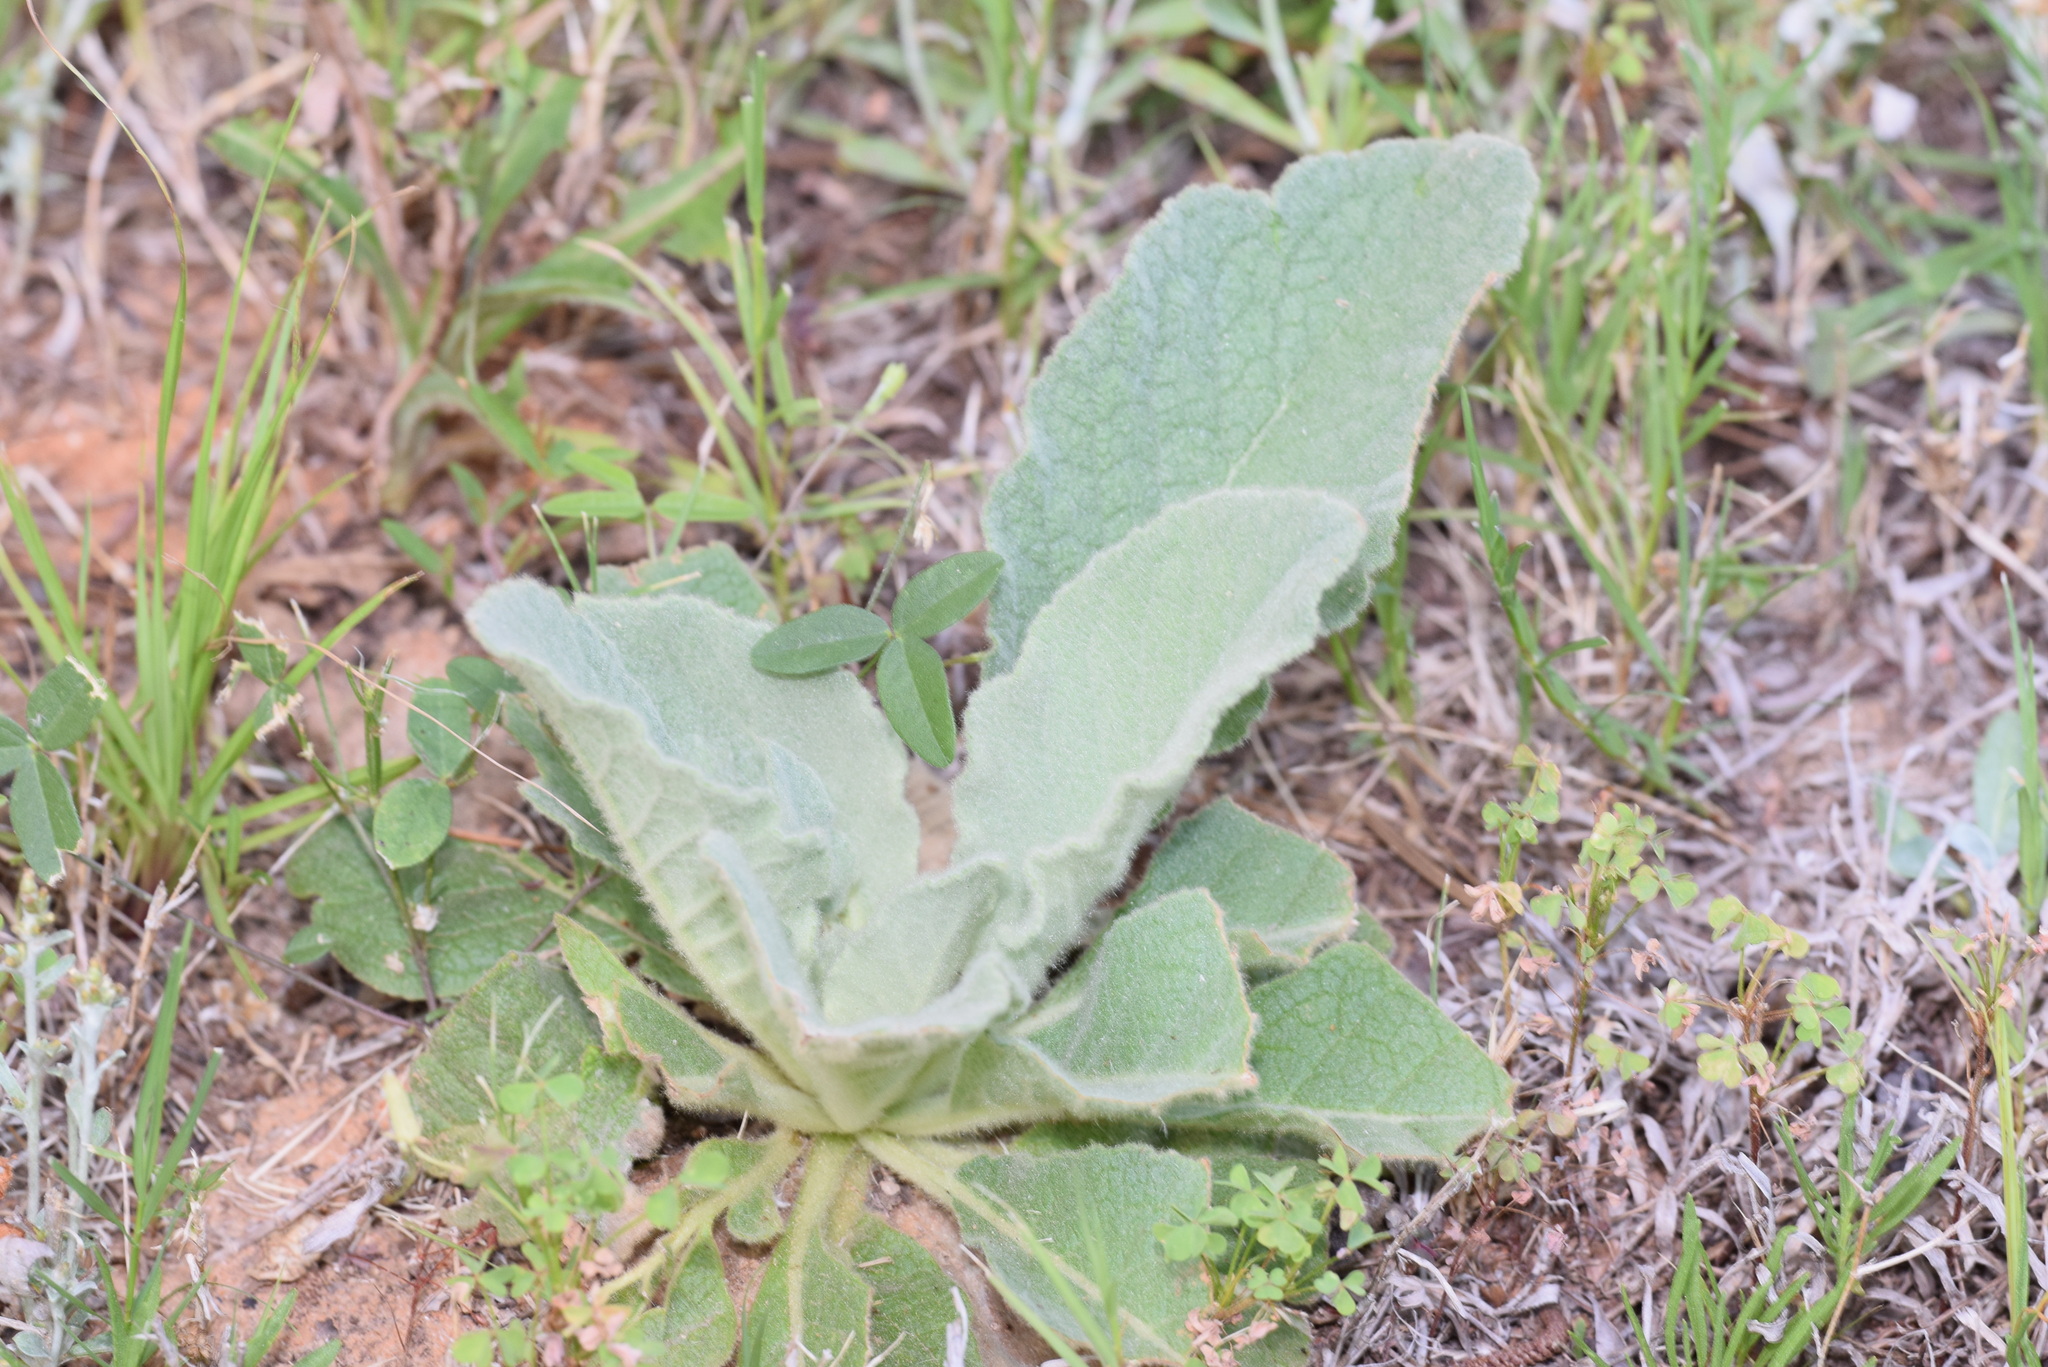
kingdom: Plantae
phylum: Tracheophyta
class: Magnoliopsida
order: Lamiales
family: Scrophulariaceae
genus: Verbascum
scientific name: Verbascum thapsus
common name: Common mullein
